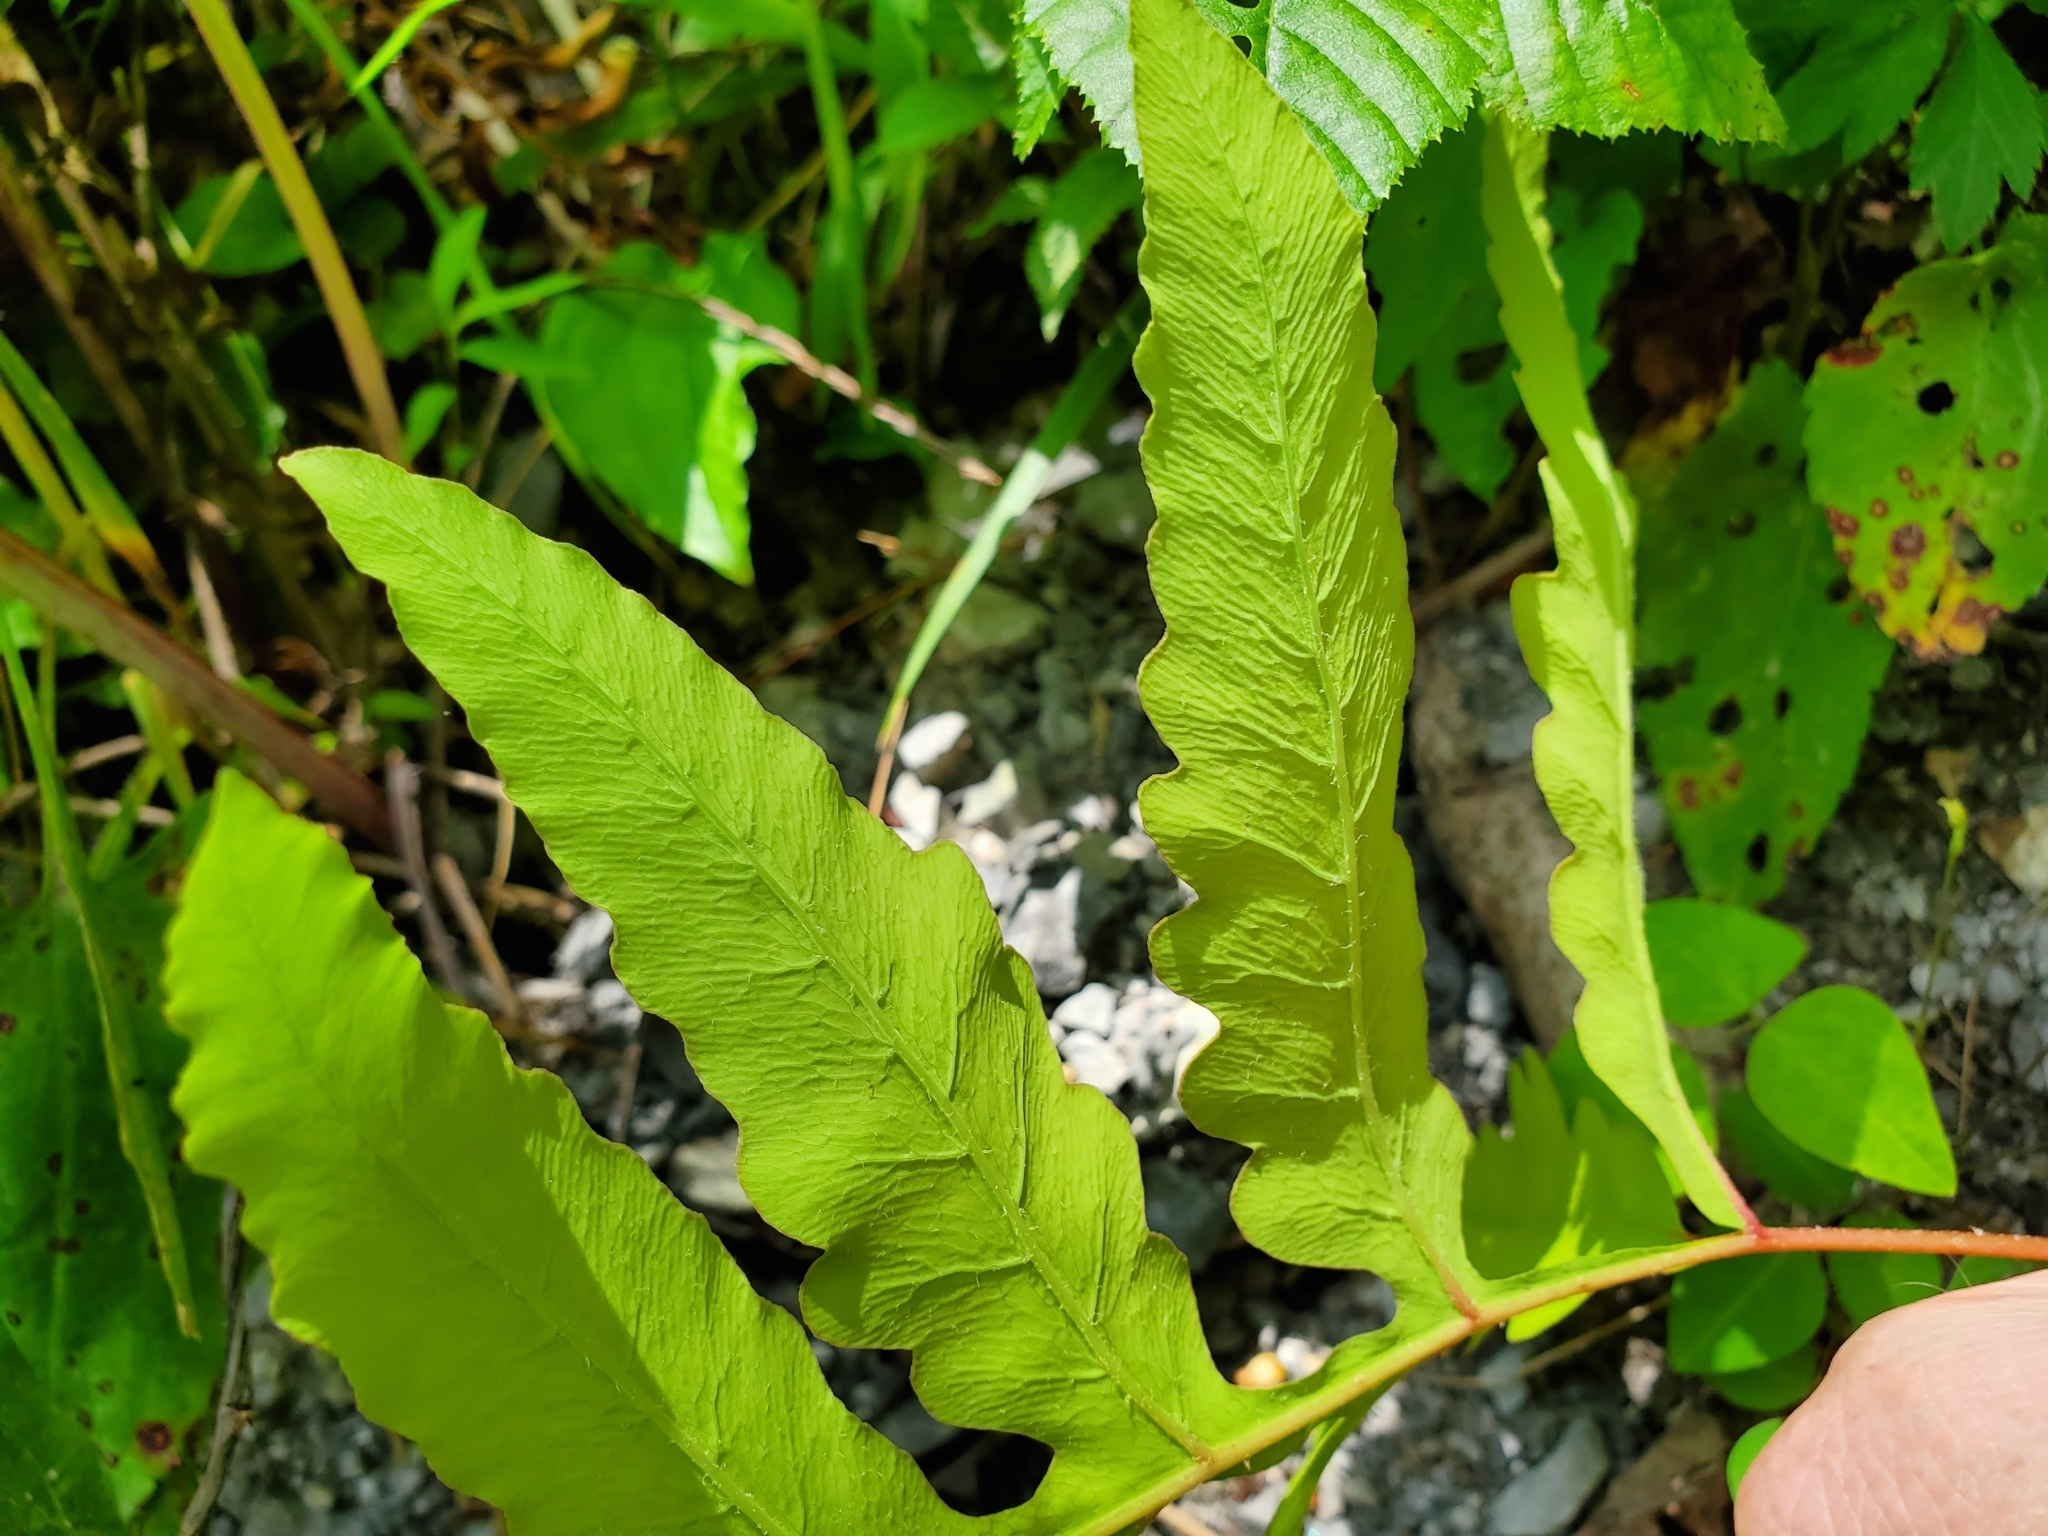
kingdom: Plantae
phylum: Tracheophyta
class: Polypodiopsida
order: Polypodiales
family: Onocleaceae
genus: Onoclea
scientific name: Onoclea sensibilis
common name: Sensitive fern
